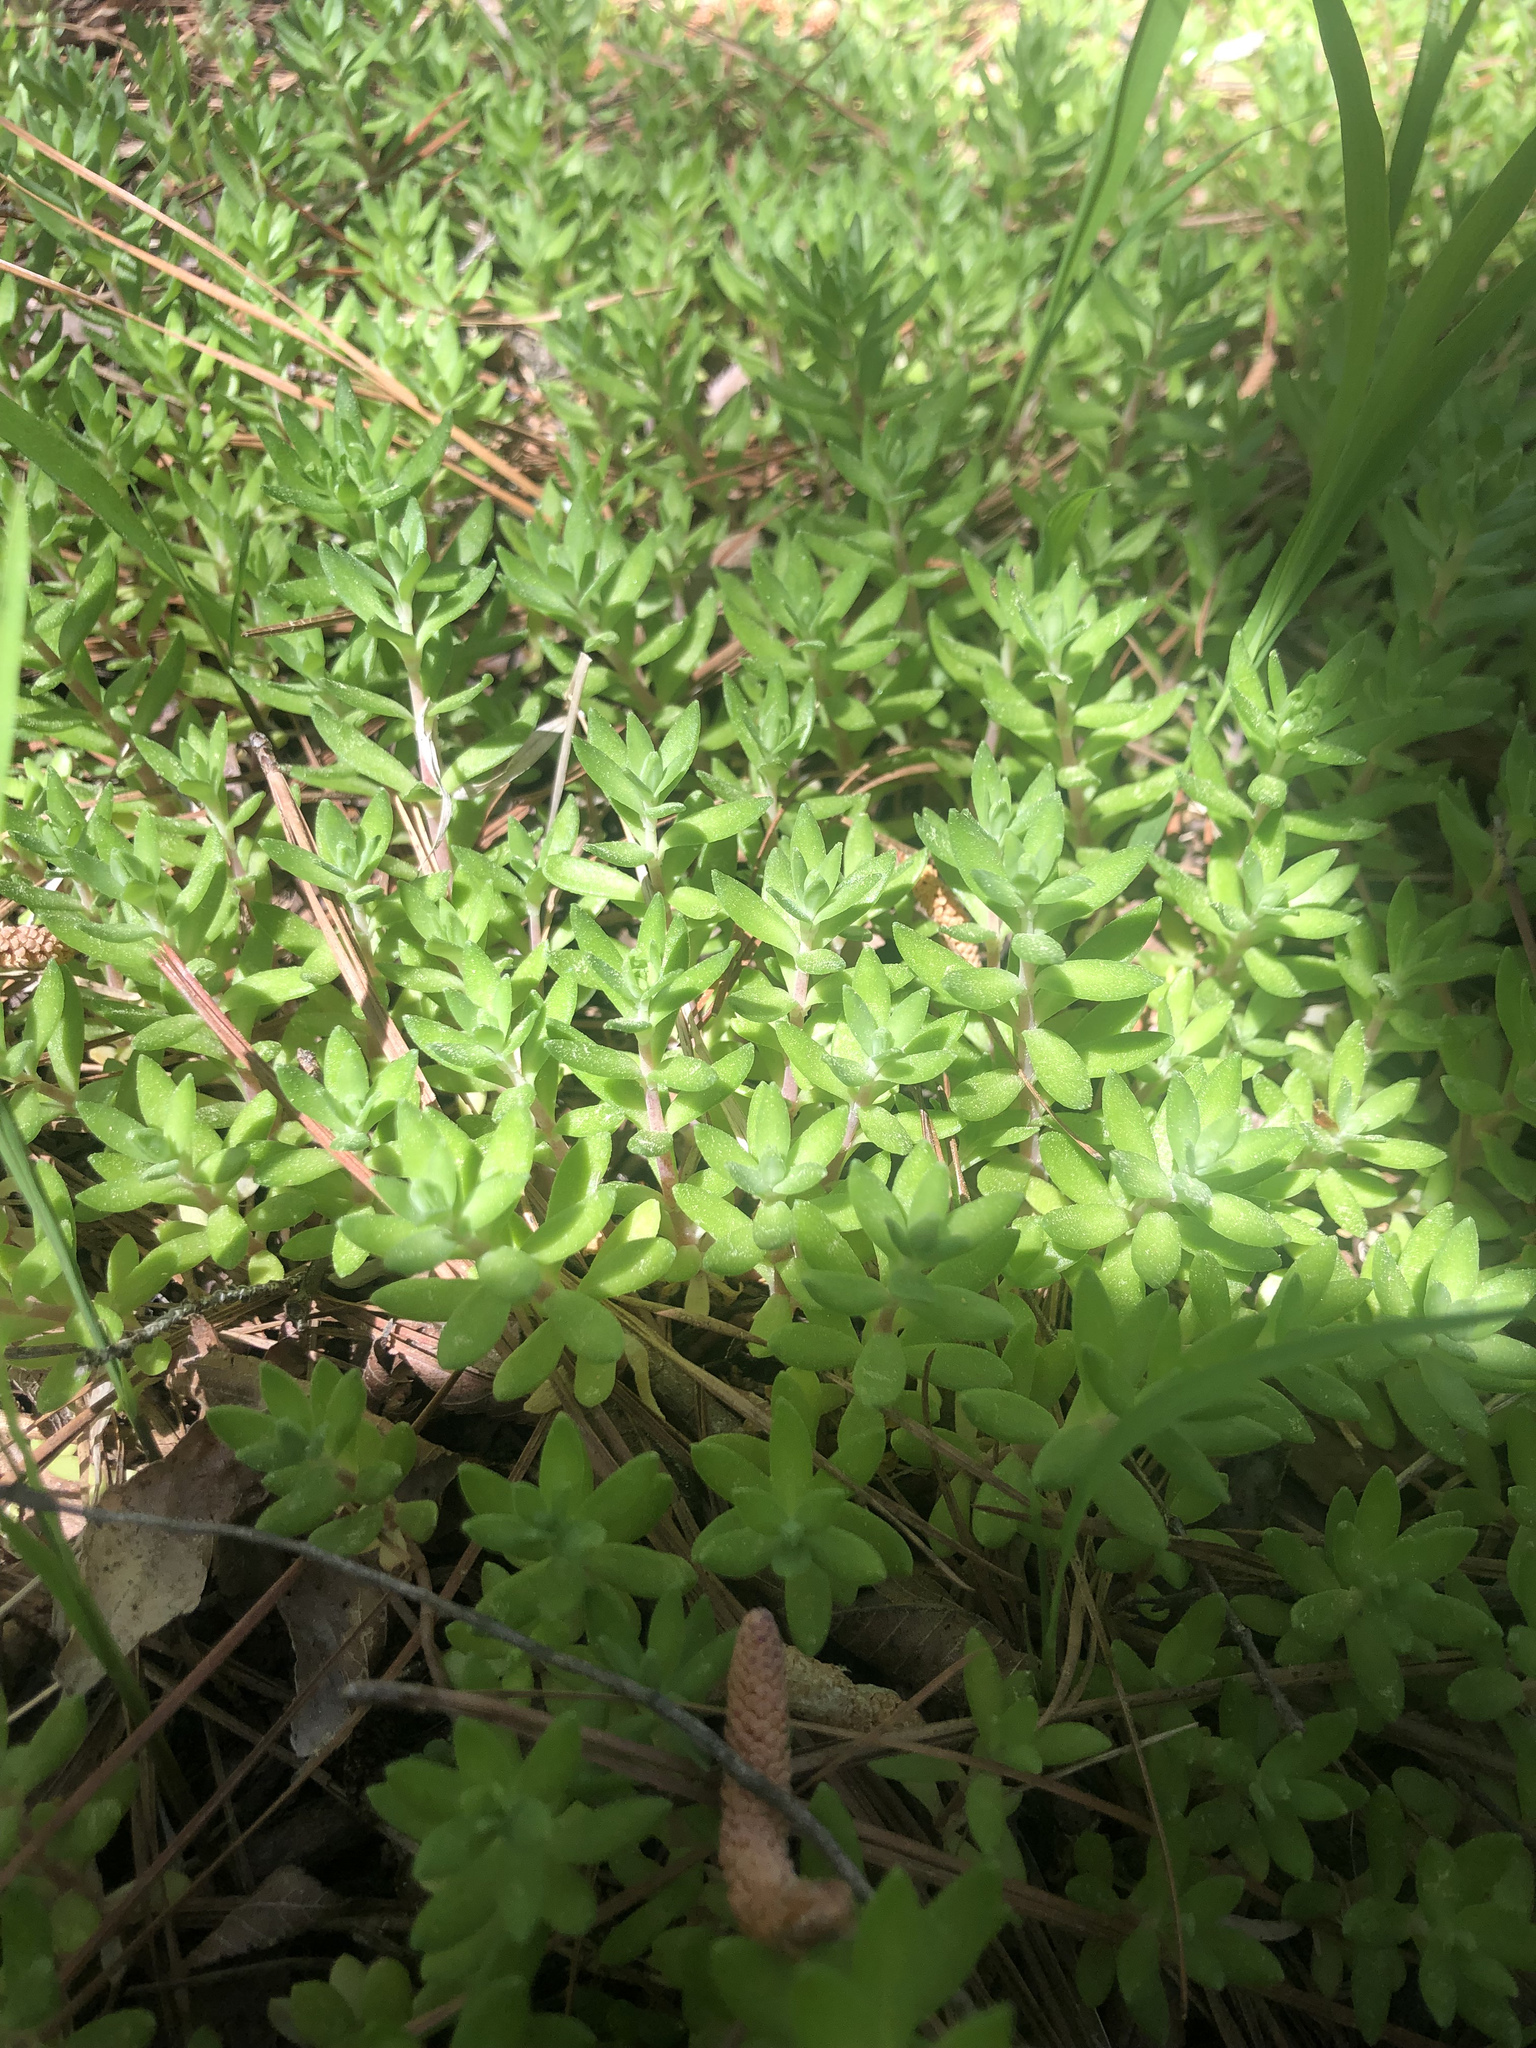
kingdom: Plantae
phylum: Tracheophyta
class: Magnoliopsida
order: Saxifragales
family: Crassulaceae
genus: Sedum
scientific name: Sedum sarmentosum
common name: Stringy stonecrop
